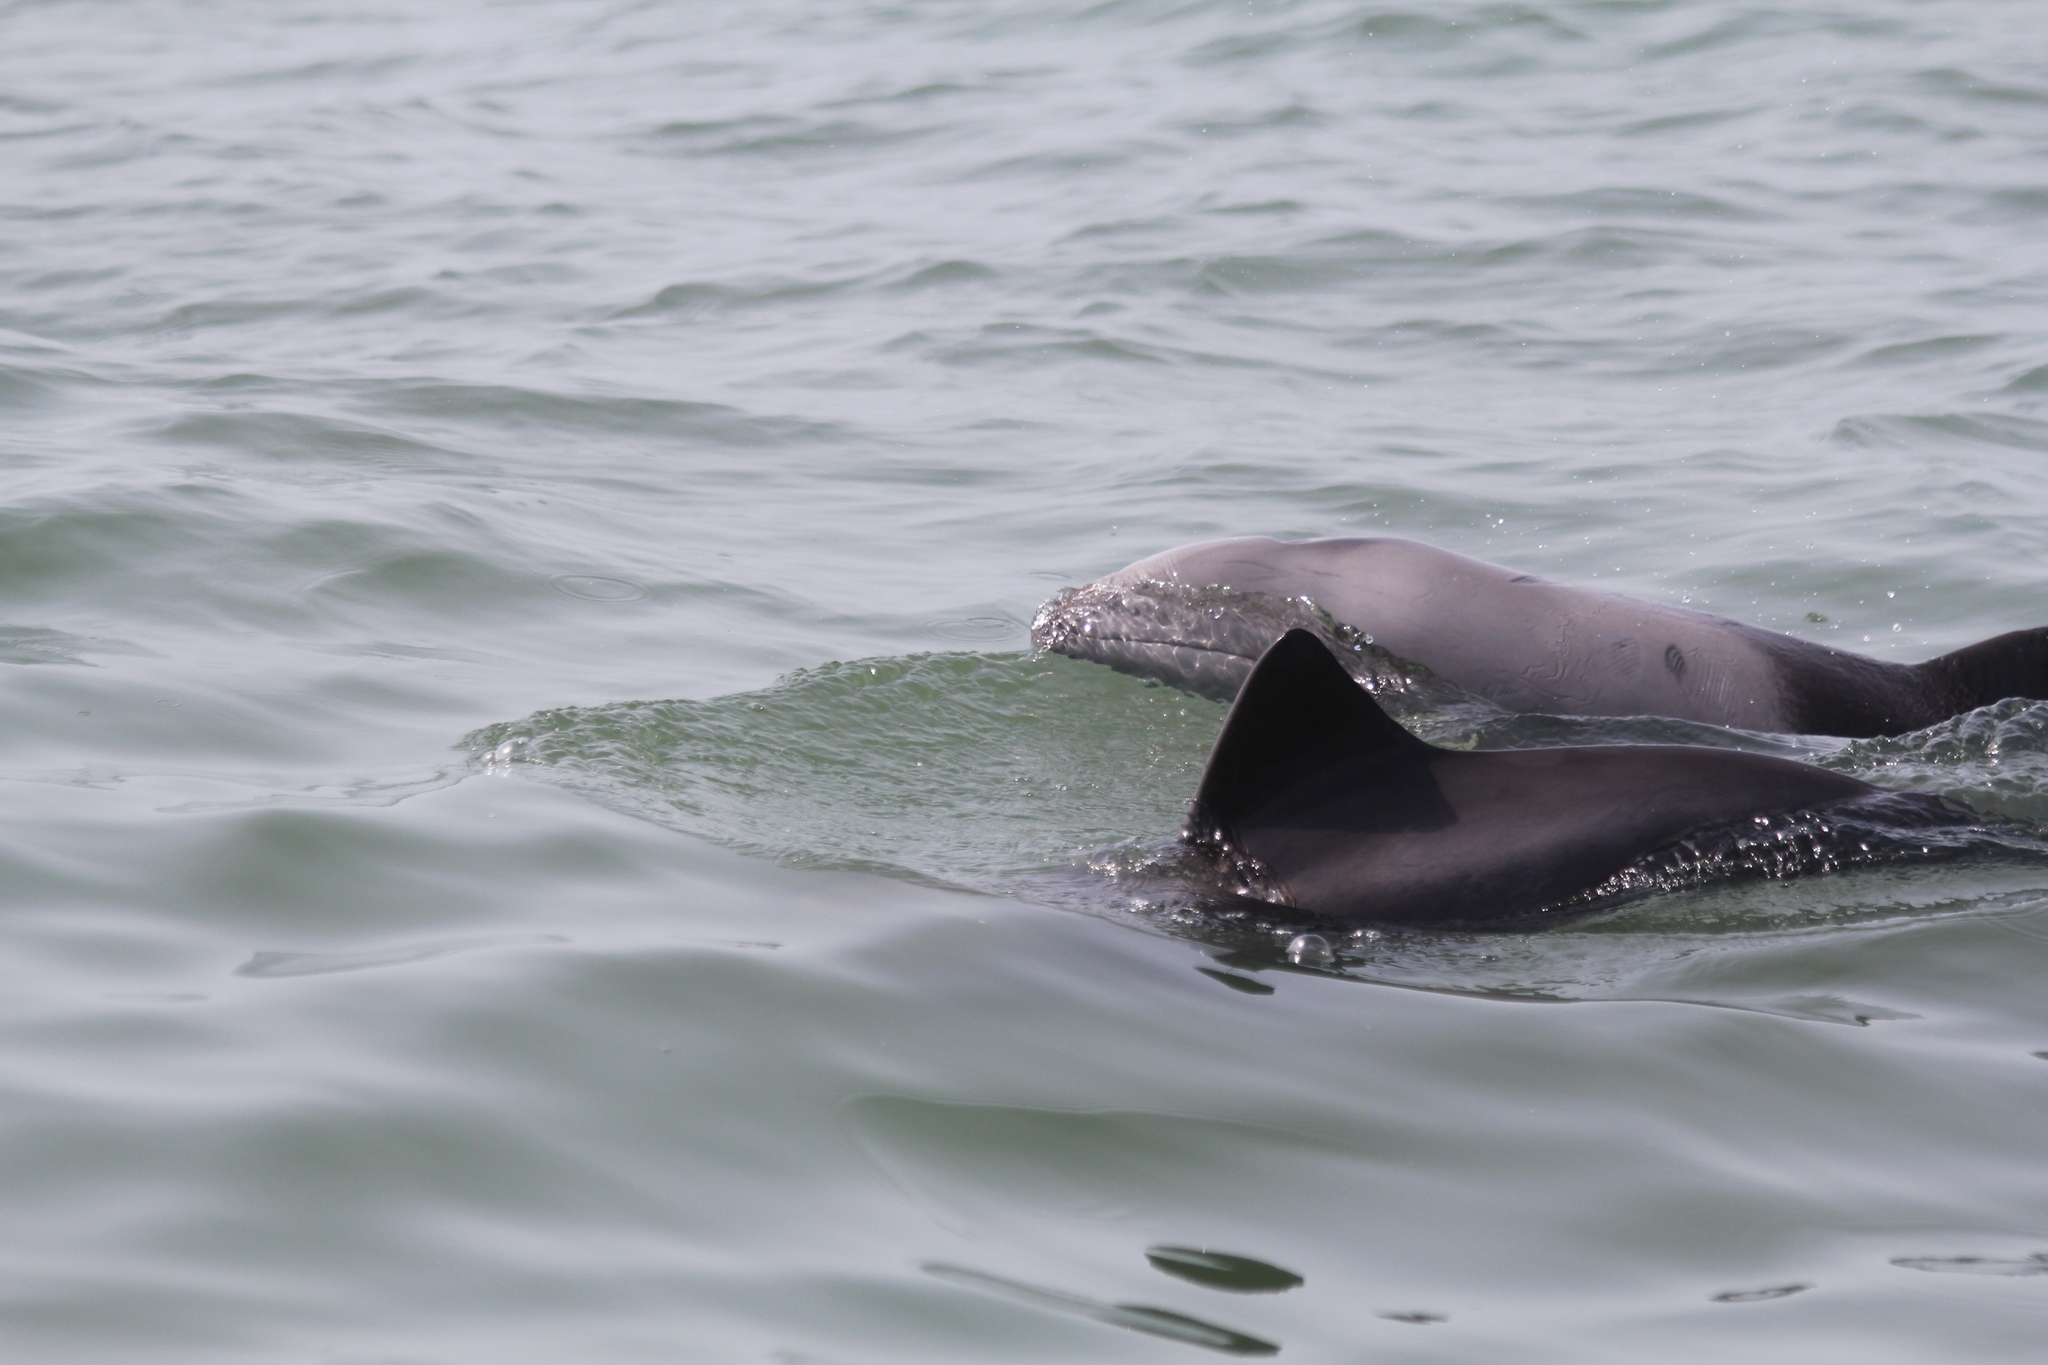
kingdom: Animalia
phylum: Chordata
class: Mammalia
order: Cetacea
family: Delphinidae
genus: Cephalorhynchus
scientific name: Cephalorhynchus heavisidii
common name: Haviside's dolphin
